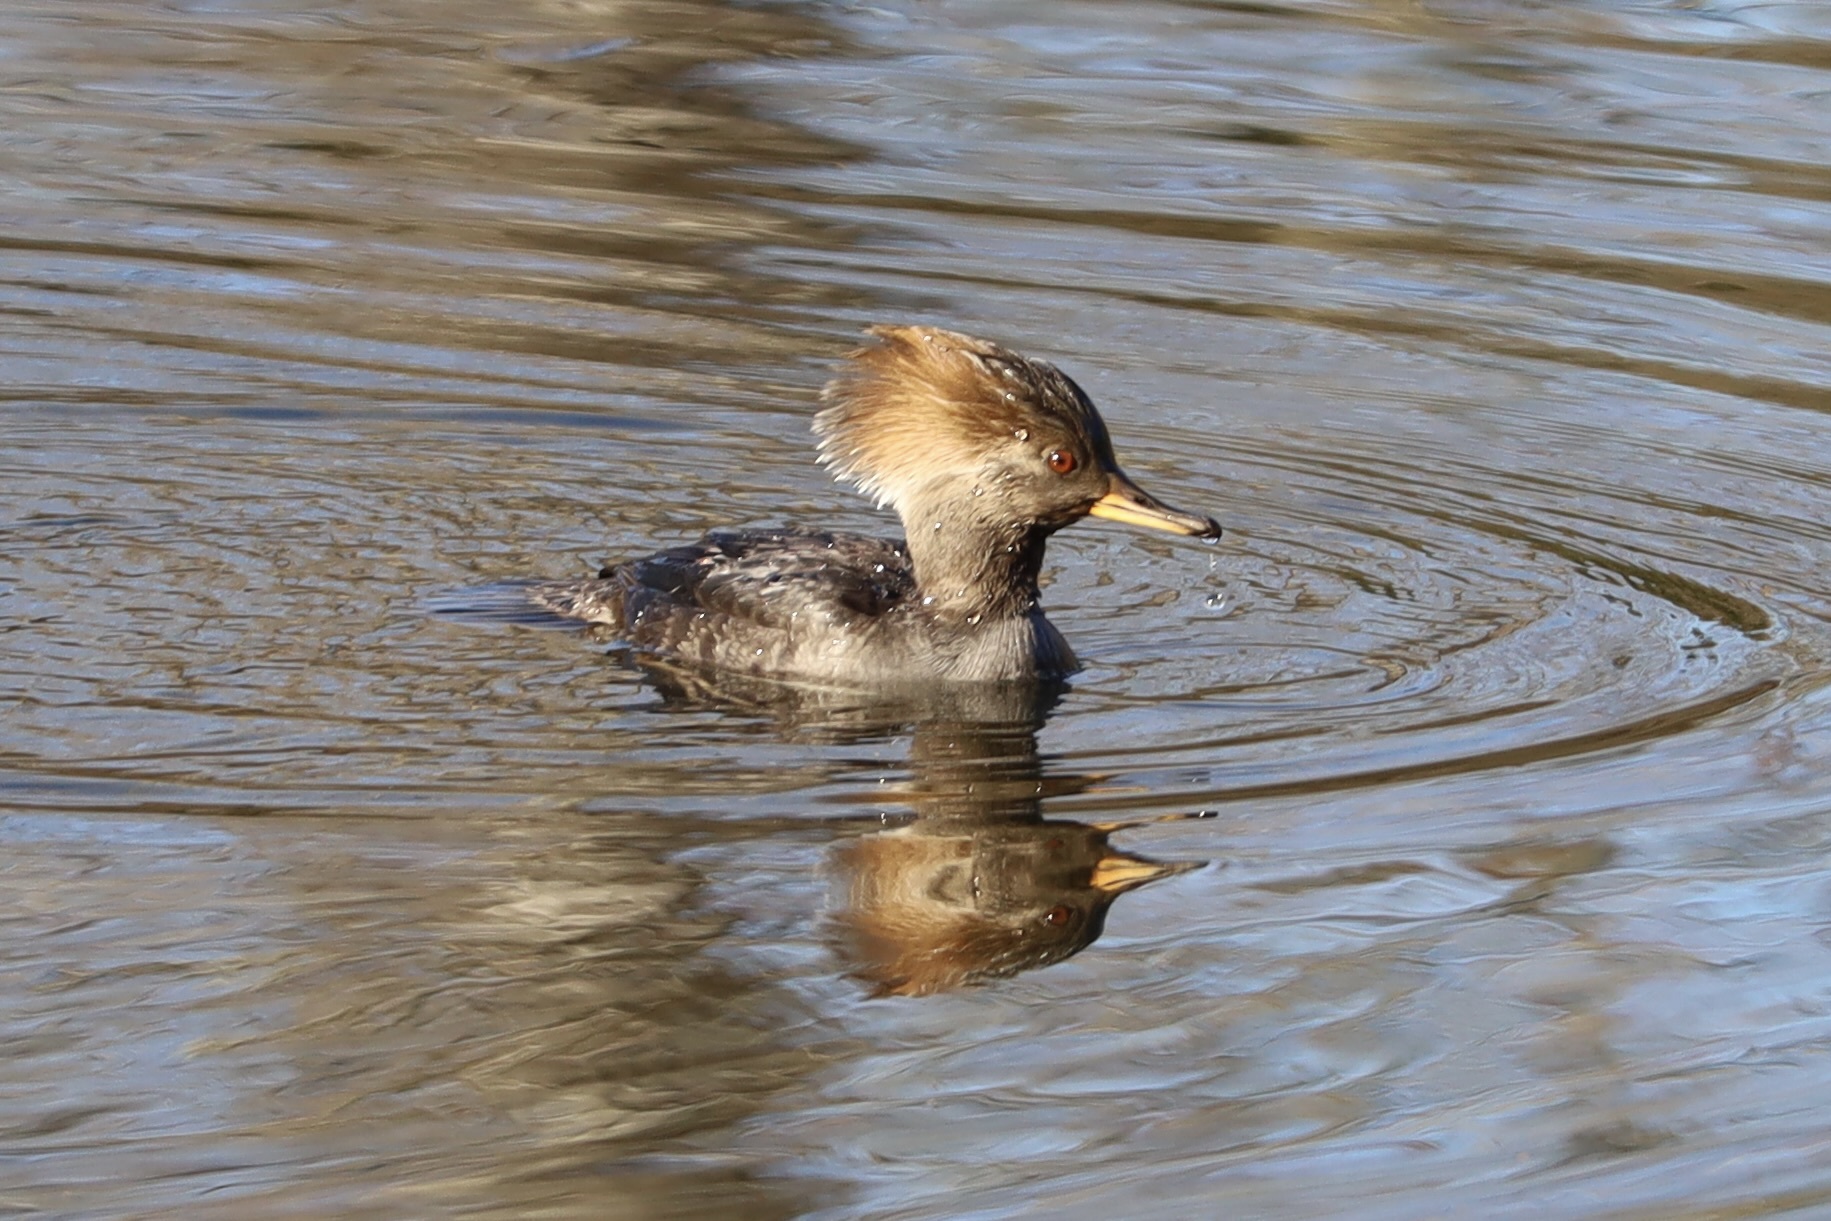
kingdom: Animalia
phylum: Chordata
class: Aves
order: Anseriformes
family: Anatidae
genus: Lophodytes
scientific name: Lophodytes cucullatus
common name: Hooded merganser
